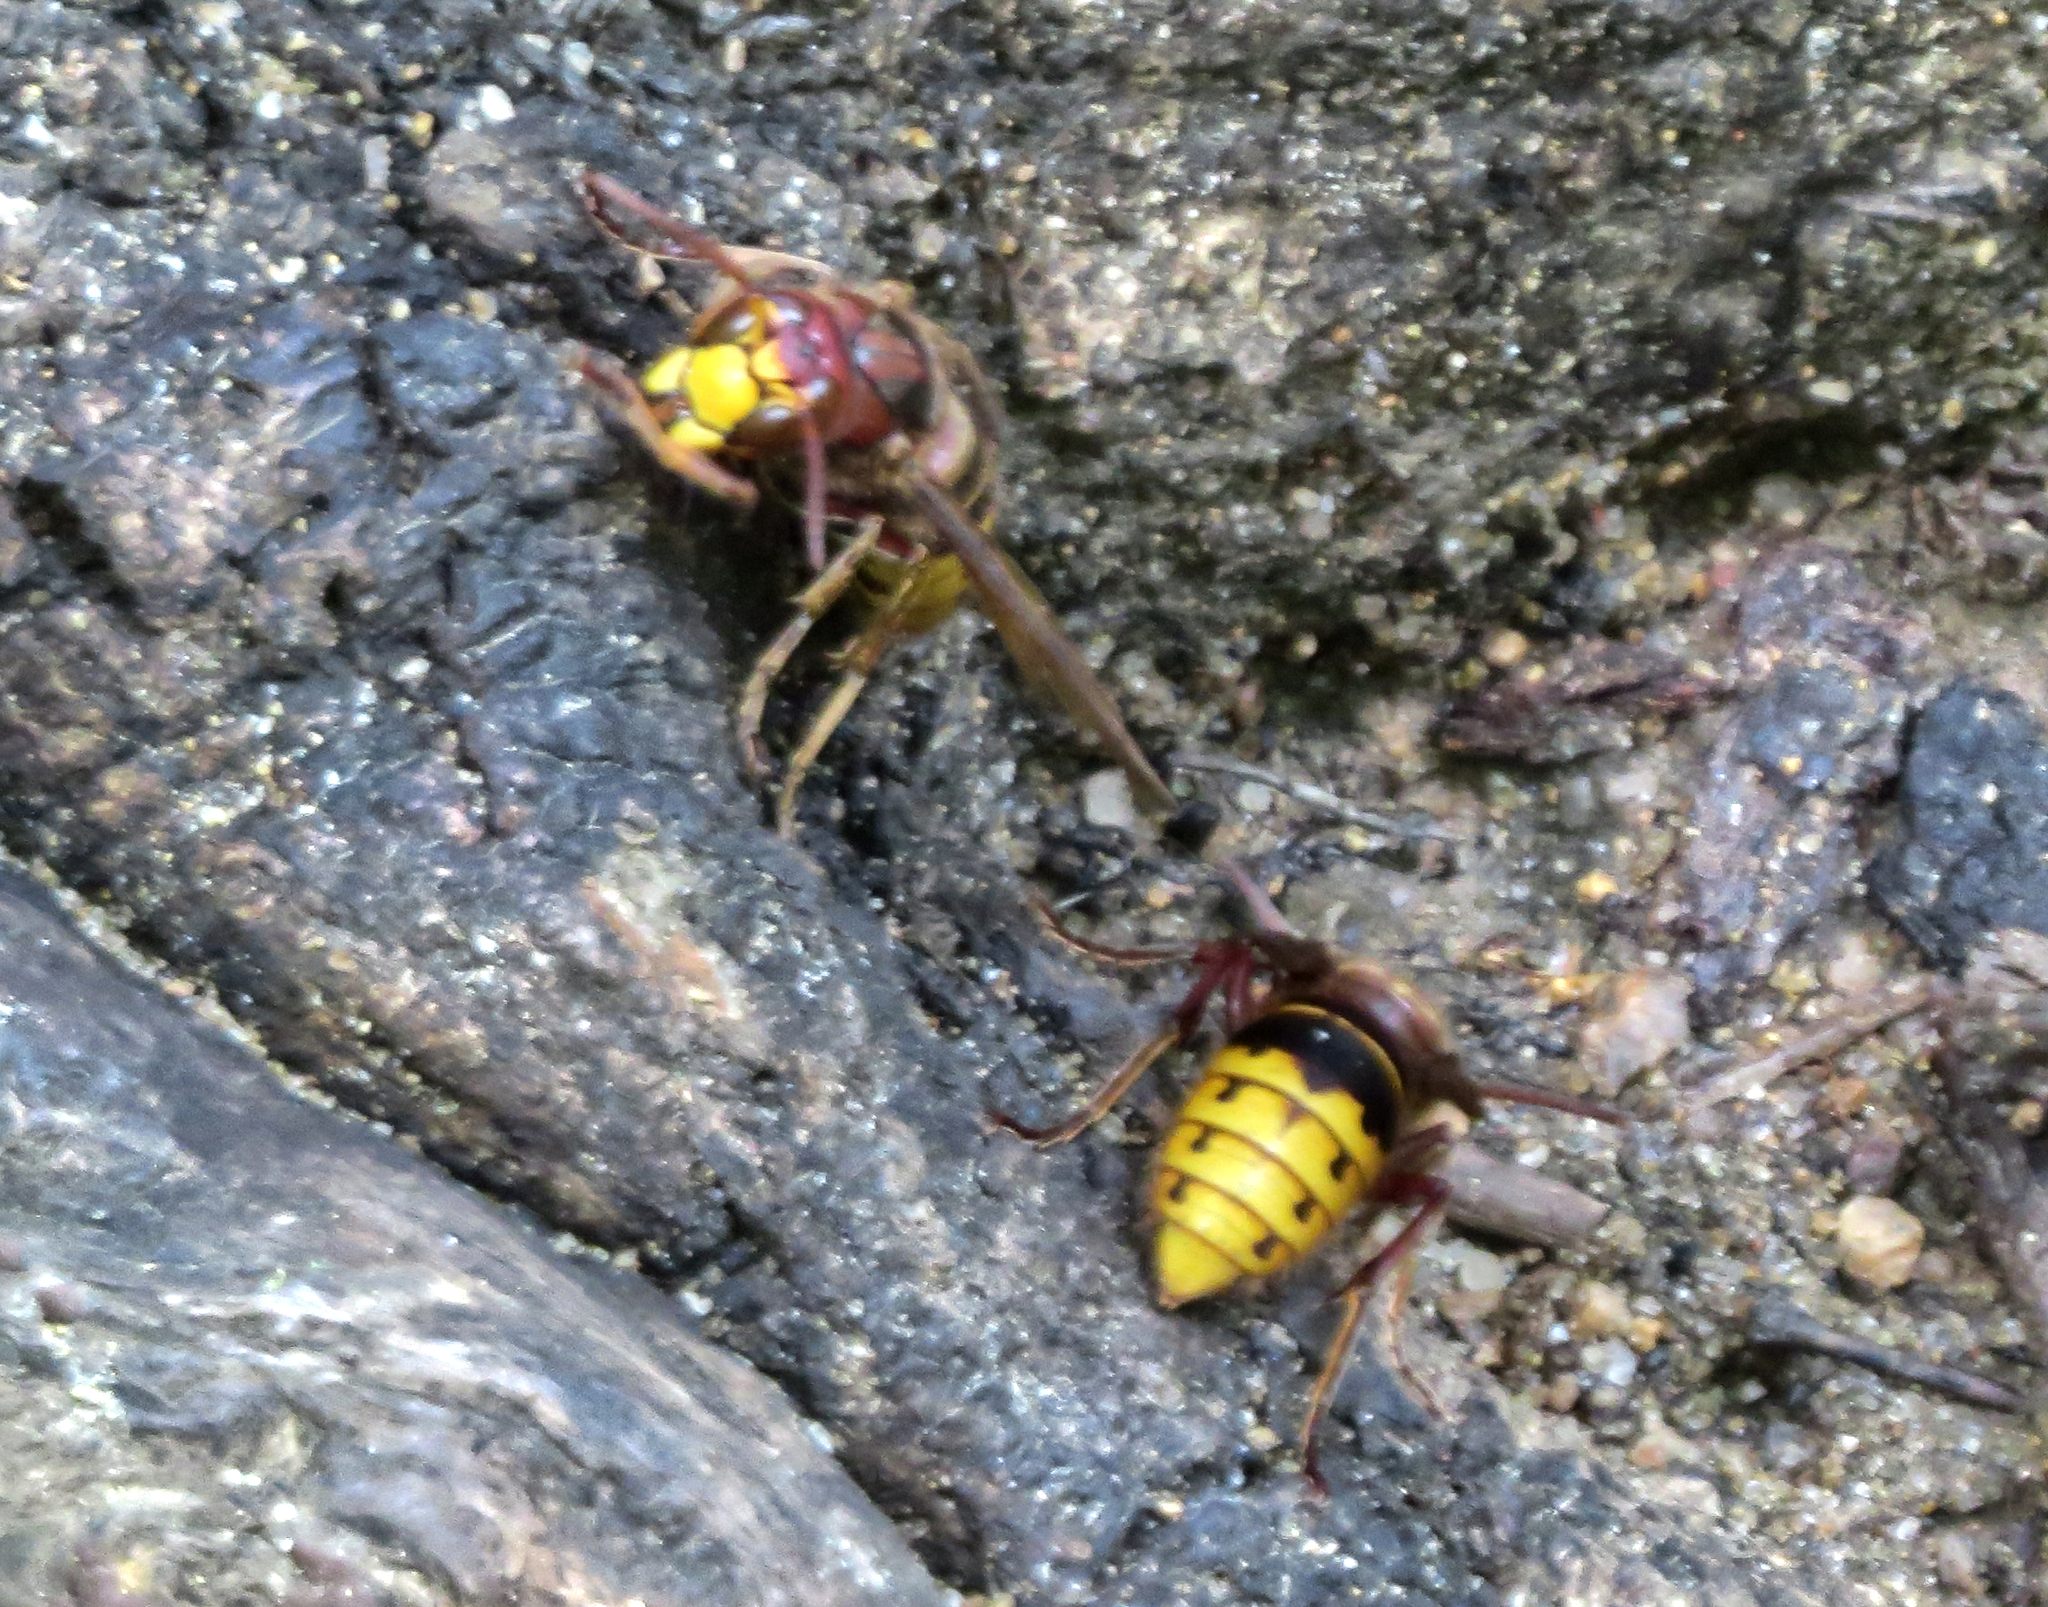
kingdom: Animalia
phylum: Arthropoda
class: Insecta
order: Hymenoptera
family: Vespidae
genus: Vespa
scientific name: Vespa crabro
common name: Hornet
